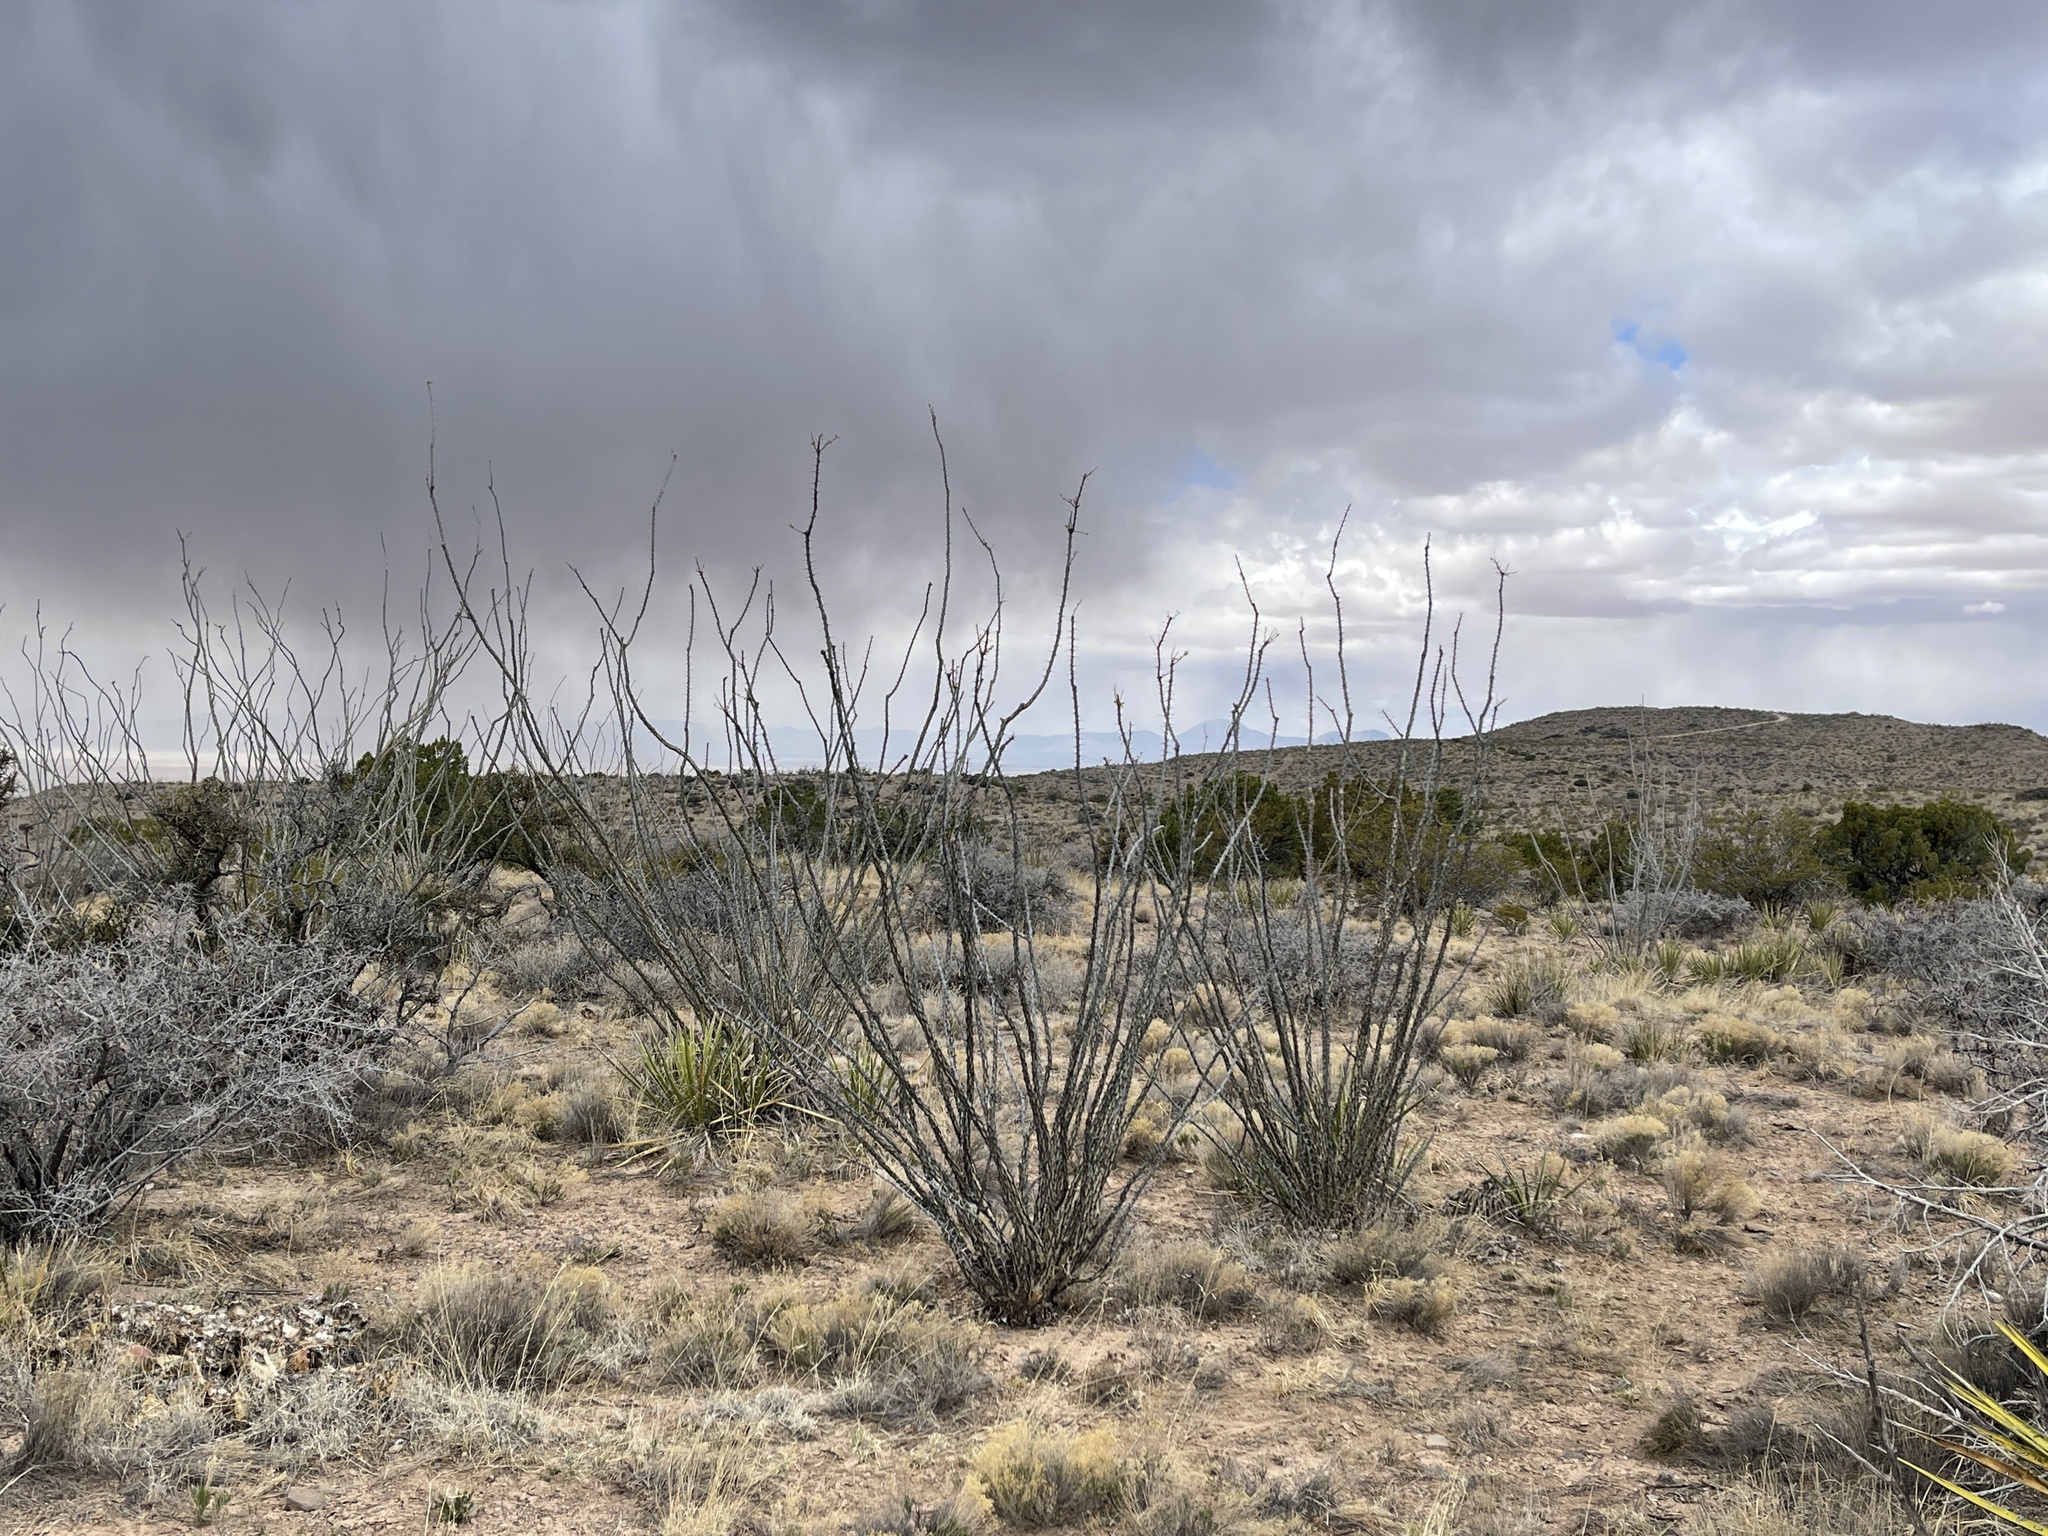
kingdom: Plantae
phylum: Tracheophyta
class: Magnoliopsida
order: Ericales
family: Fouquieriaceae
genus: Fouquieria
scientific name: Fouquieria splendens
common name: Vine-cactus
